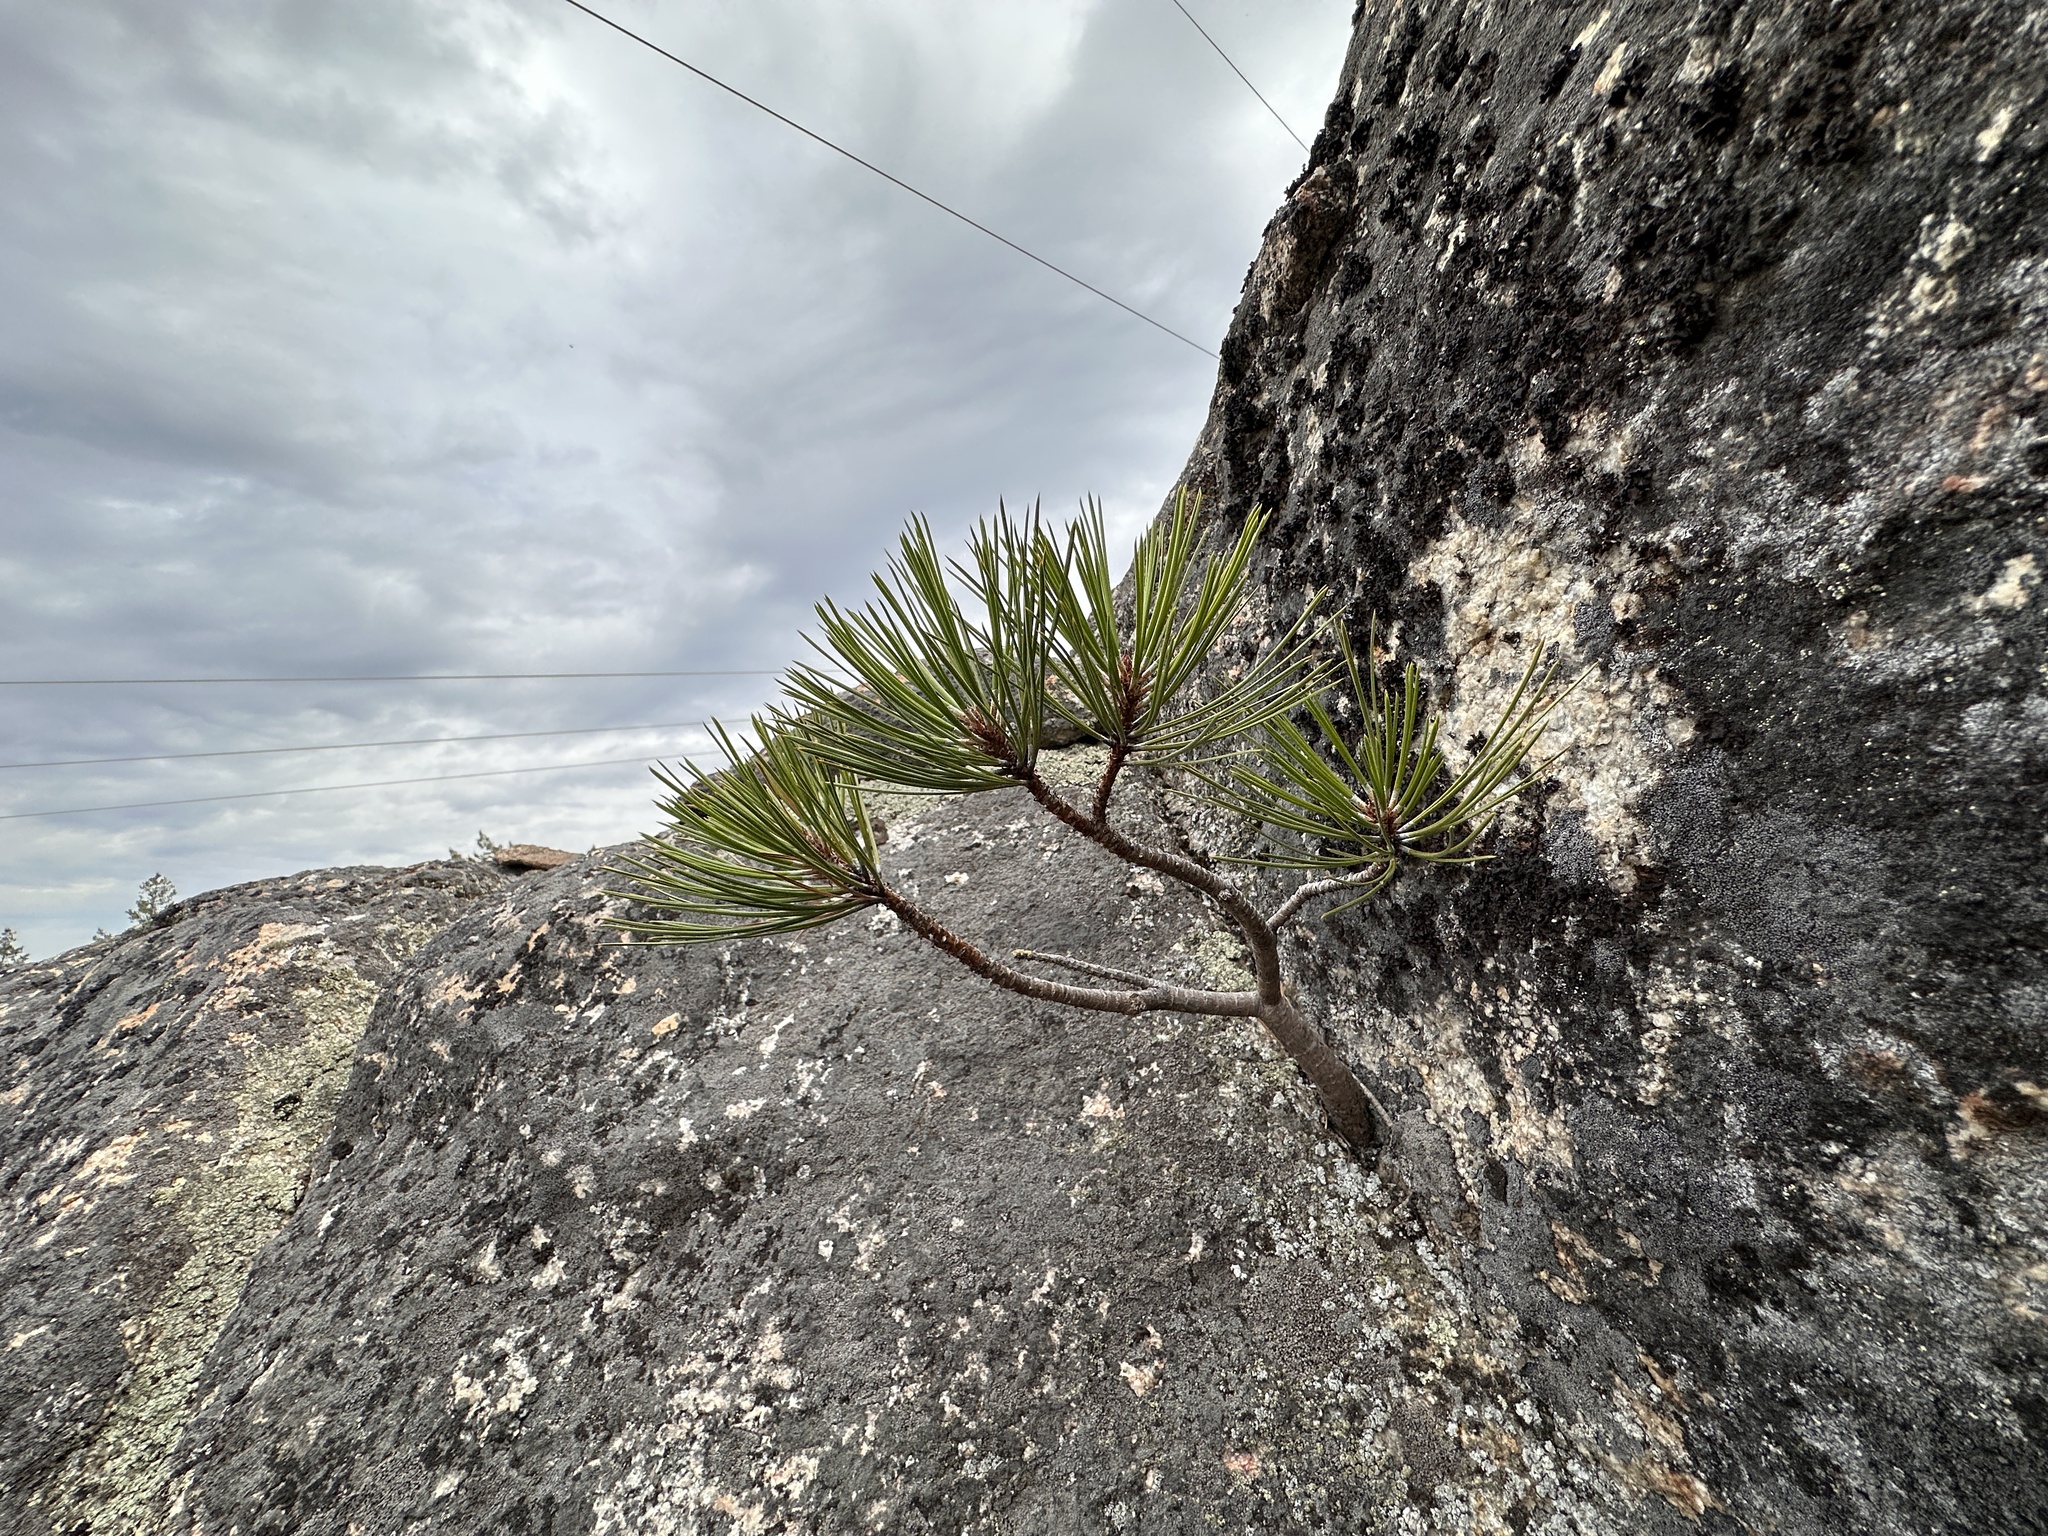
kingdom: Plantae
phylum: Tracheophyta
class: Pinopsida
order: Pinales
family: Pinaceae
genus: Pinus
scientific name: Pinus ponderosa
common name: Western yellow-pine
